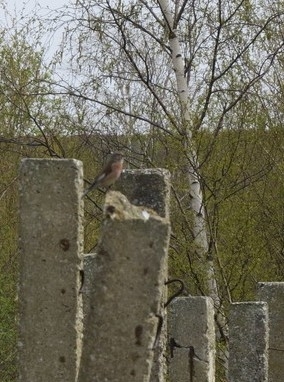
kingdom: Animalia
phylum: Chordata
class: Aves
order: Passeriformes
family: Fringillidae
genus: Linaria
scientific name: Linaria cannabina
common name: Common linnet
